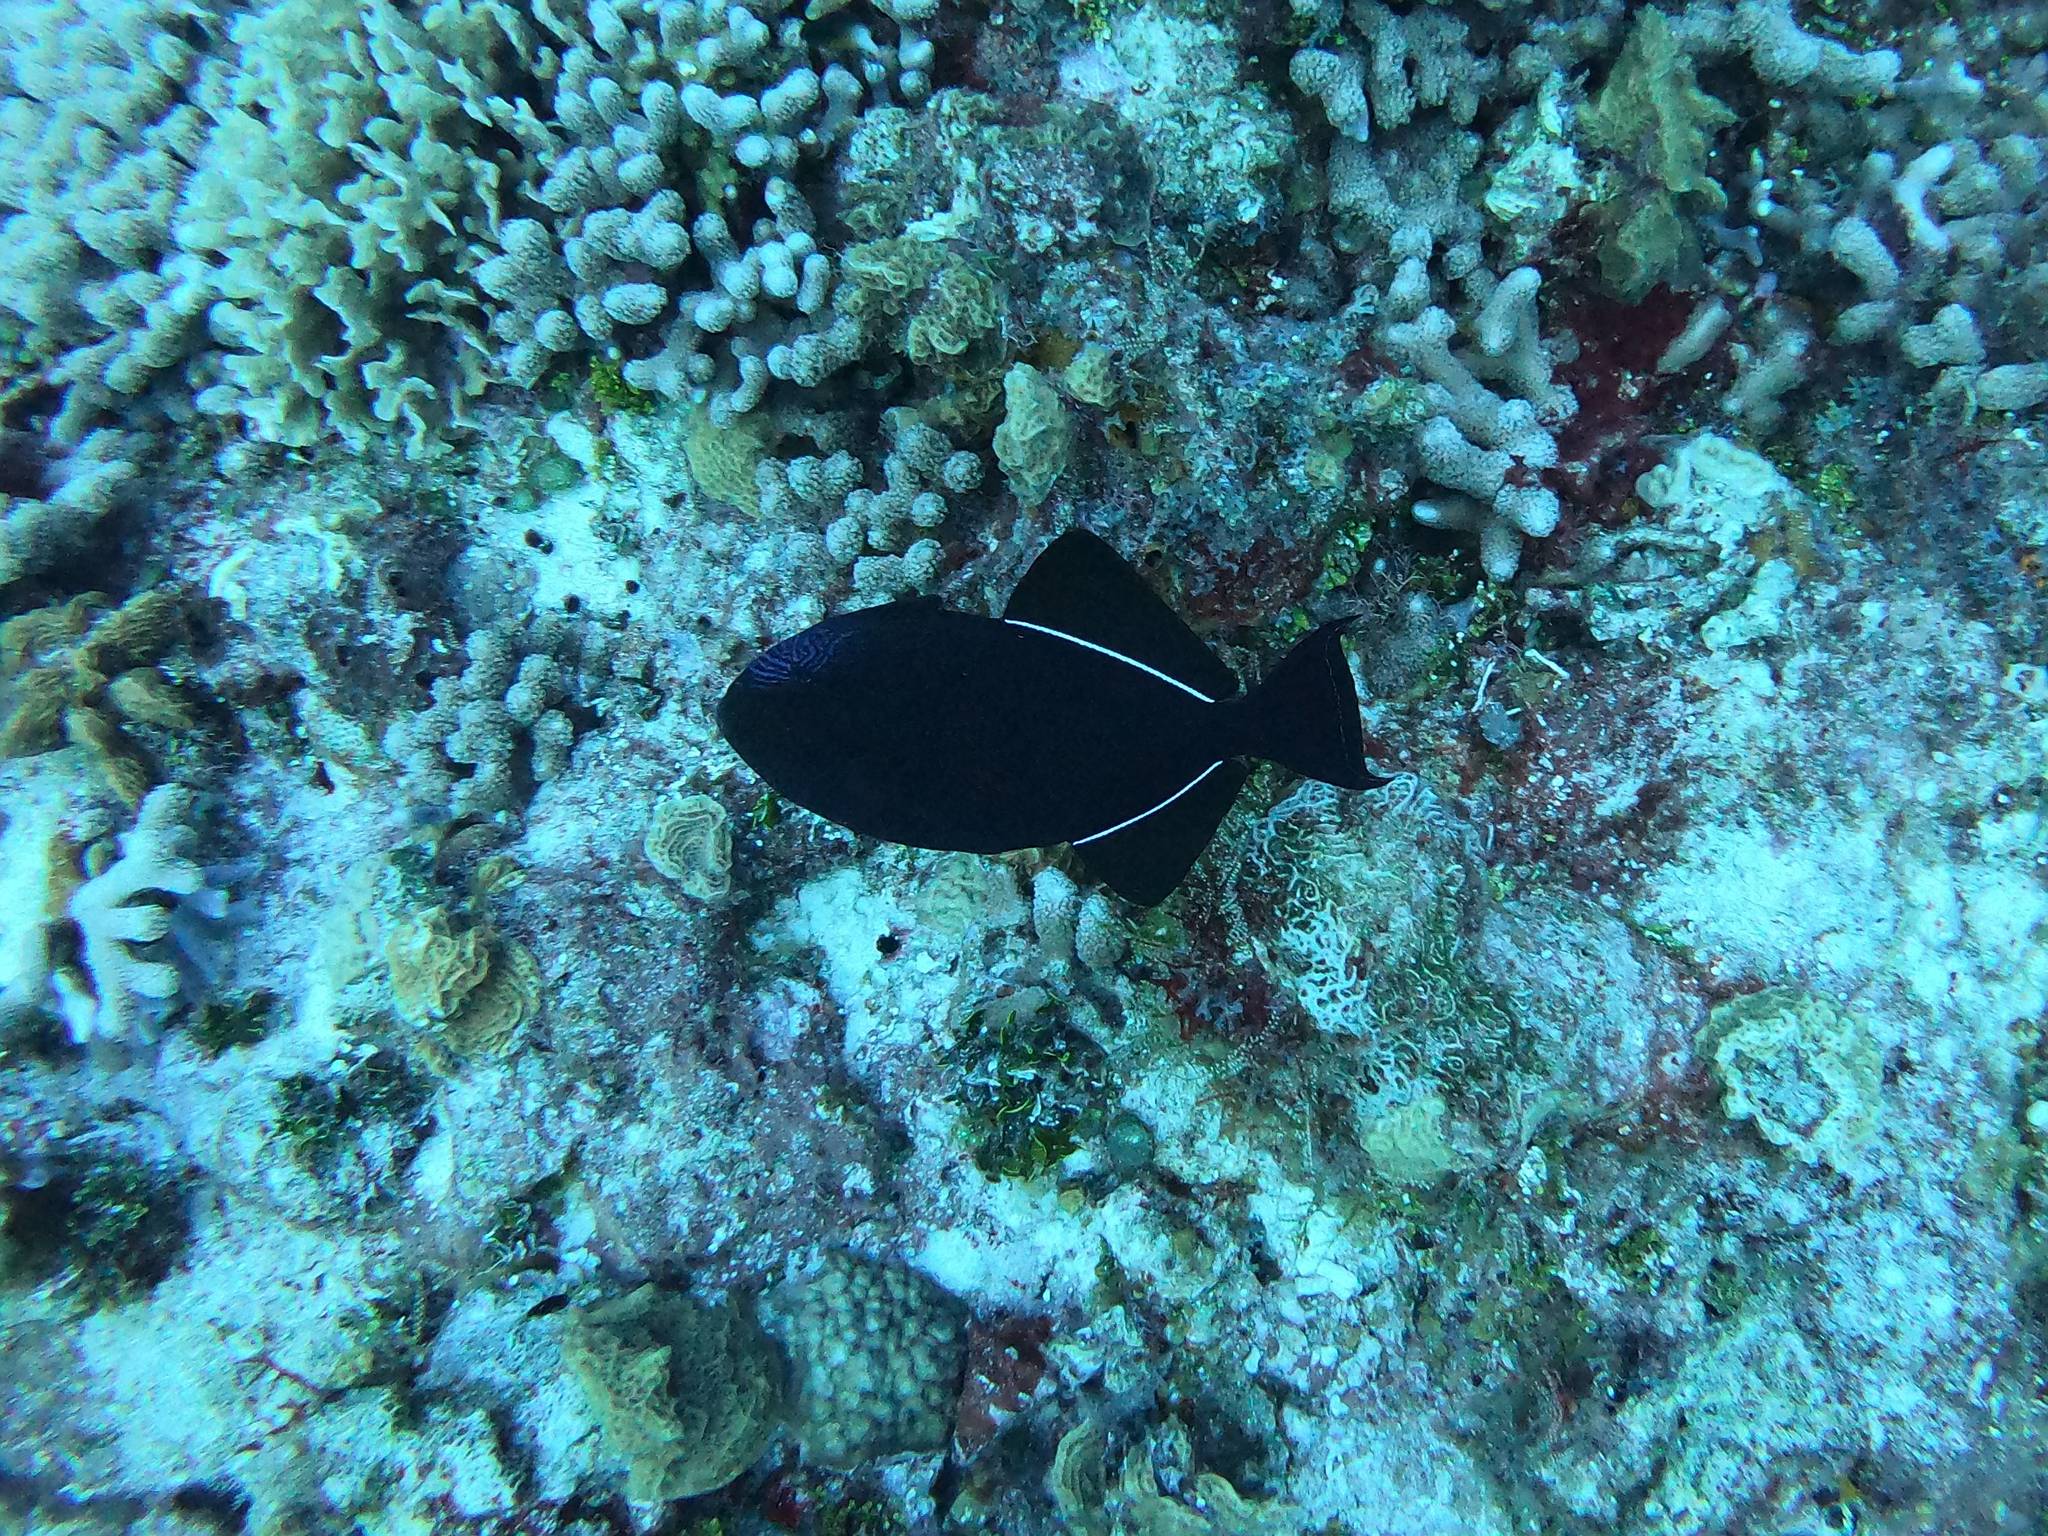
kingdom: Animalia
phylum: Chordata
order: Tetraodontiformes
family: Balistidae
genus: Melichthys
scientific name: Melichthys niger
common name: Black durgon
